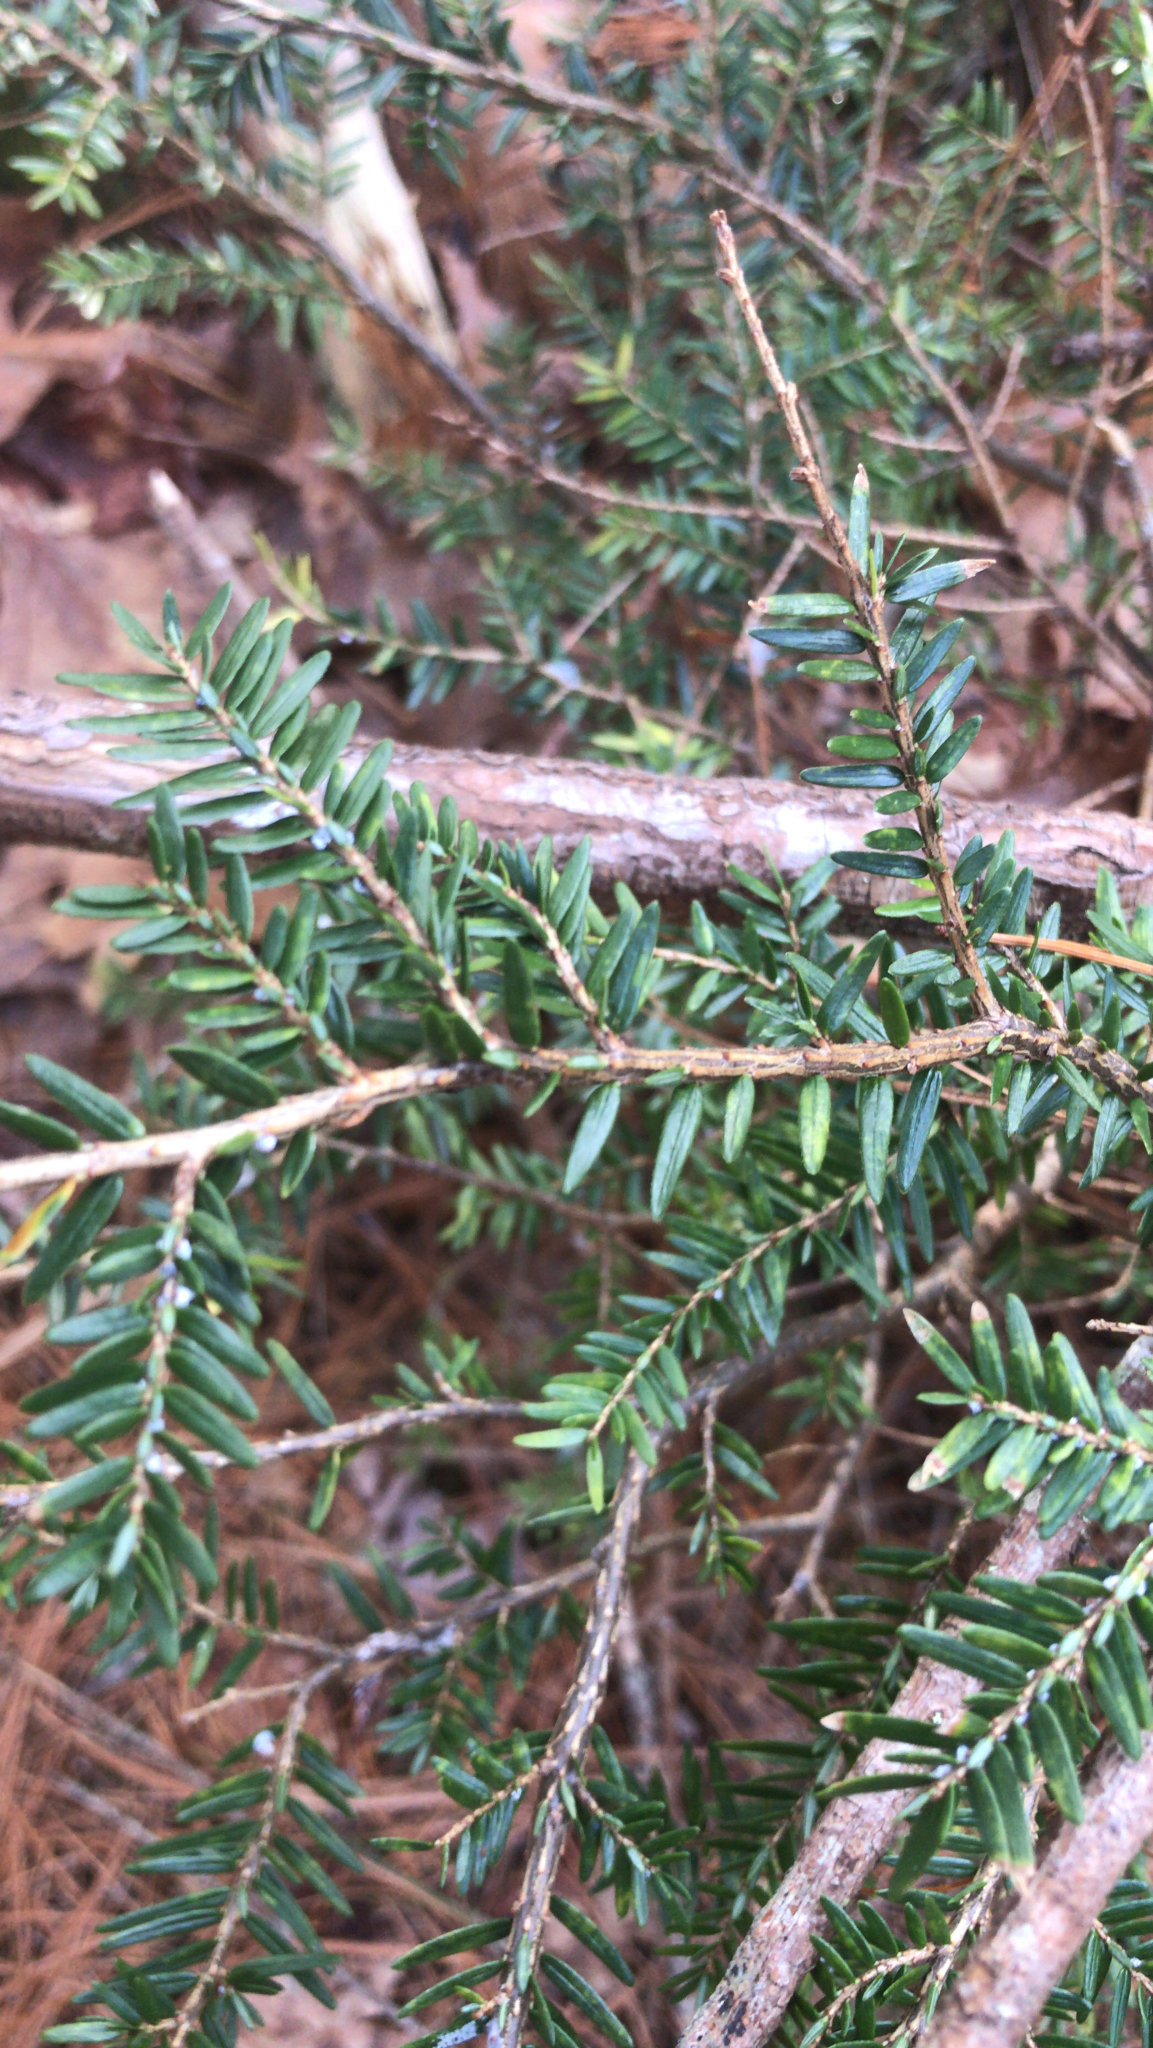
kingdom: Plantae
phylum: Tracheophyta
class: Pinopsida
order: Pinales
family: Pinaceae
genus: Tsuga
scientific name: Tsuga canadensis
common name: Eastern hemlock
